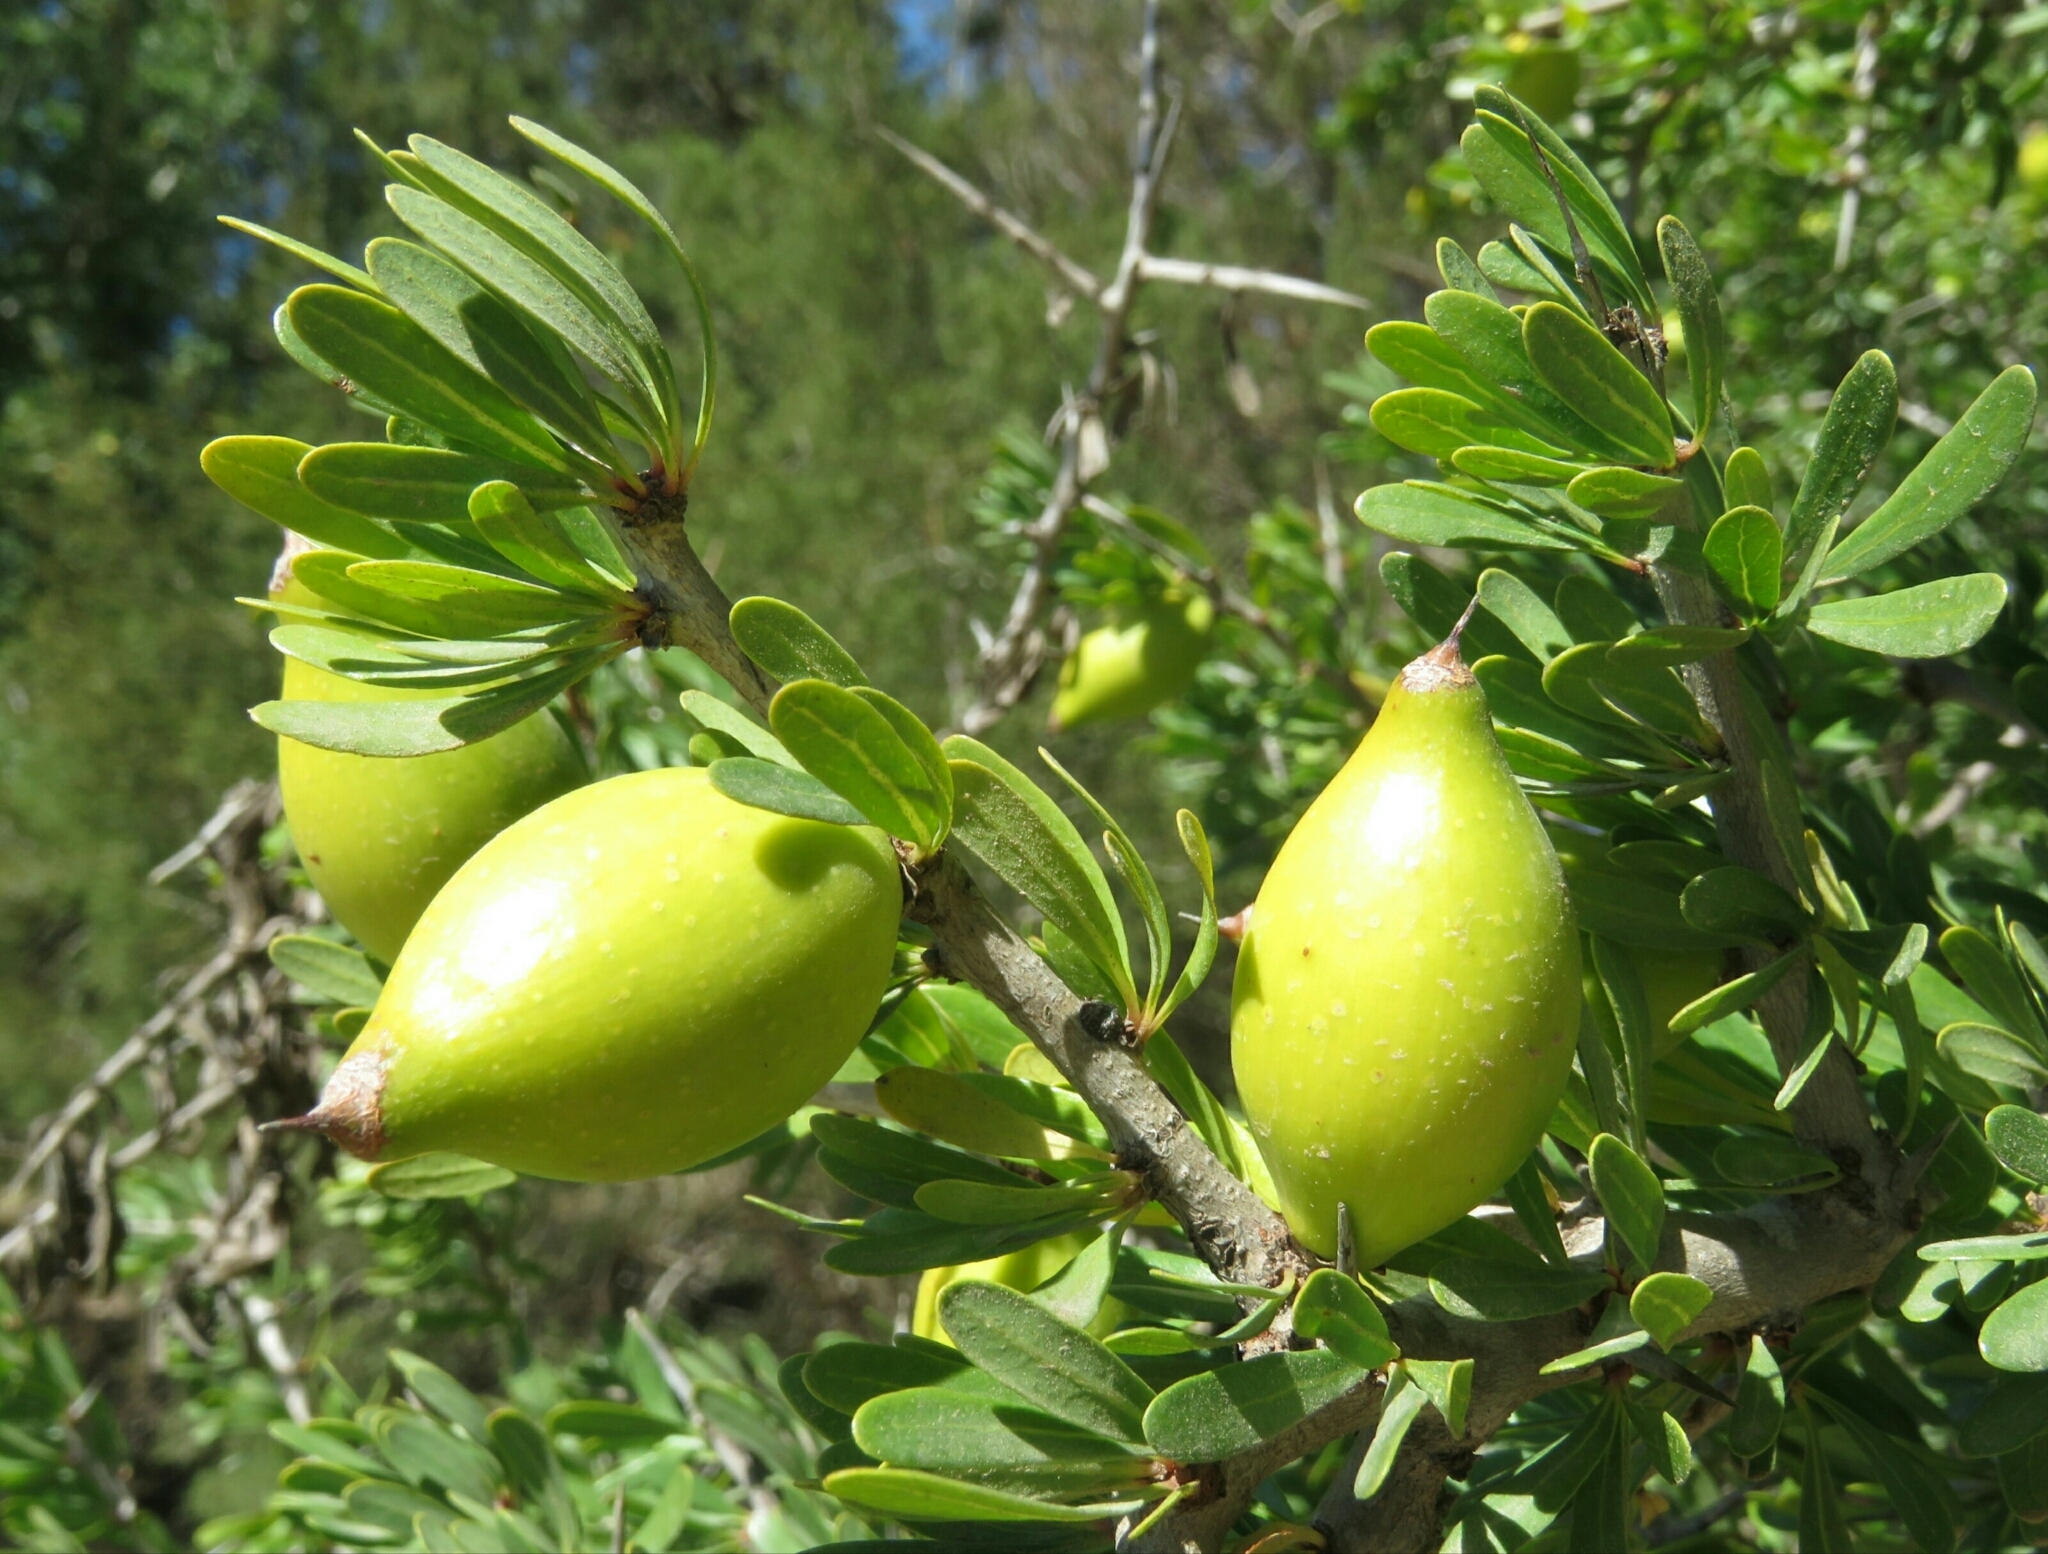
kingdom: Plantae
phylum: Tracheophyta
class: Magnoliopsida
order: Ericales
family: Sapotaceae
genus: Sideroxylon
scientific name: Sideroxylon spinosum
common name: Argan
